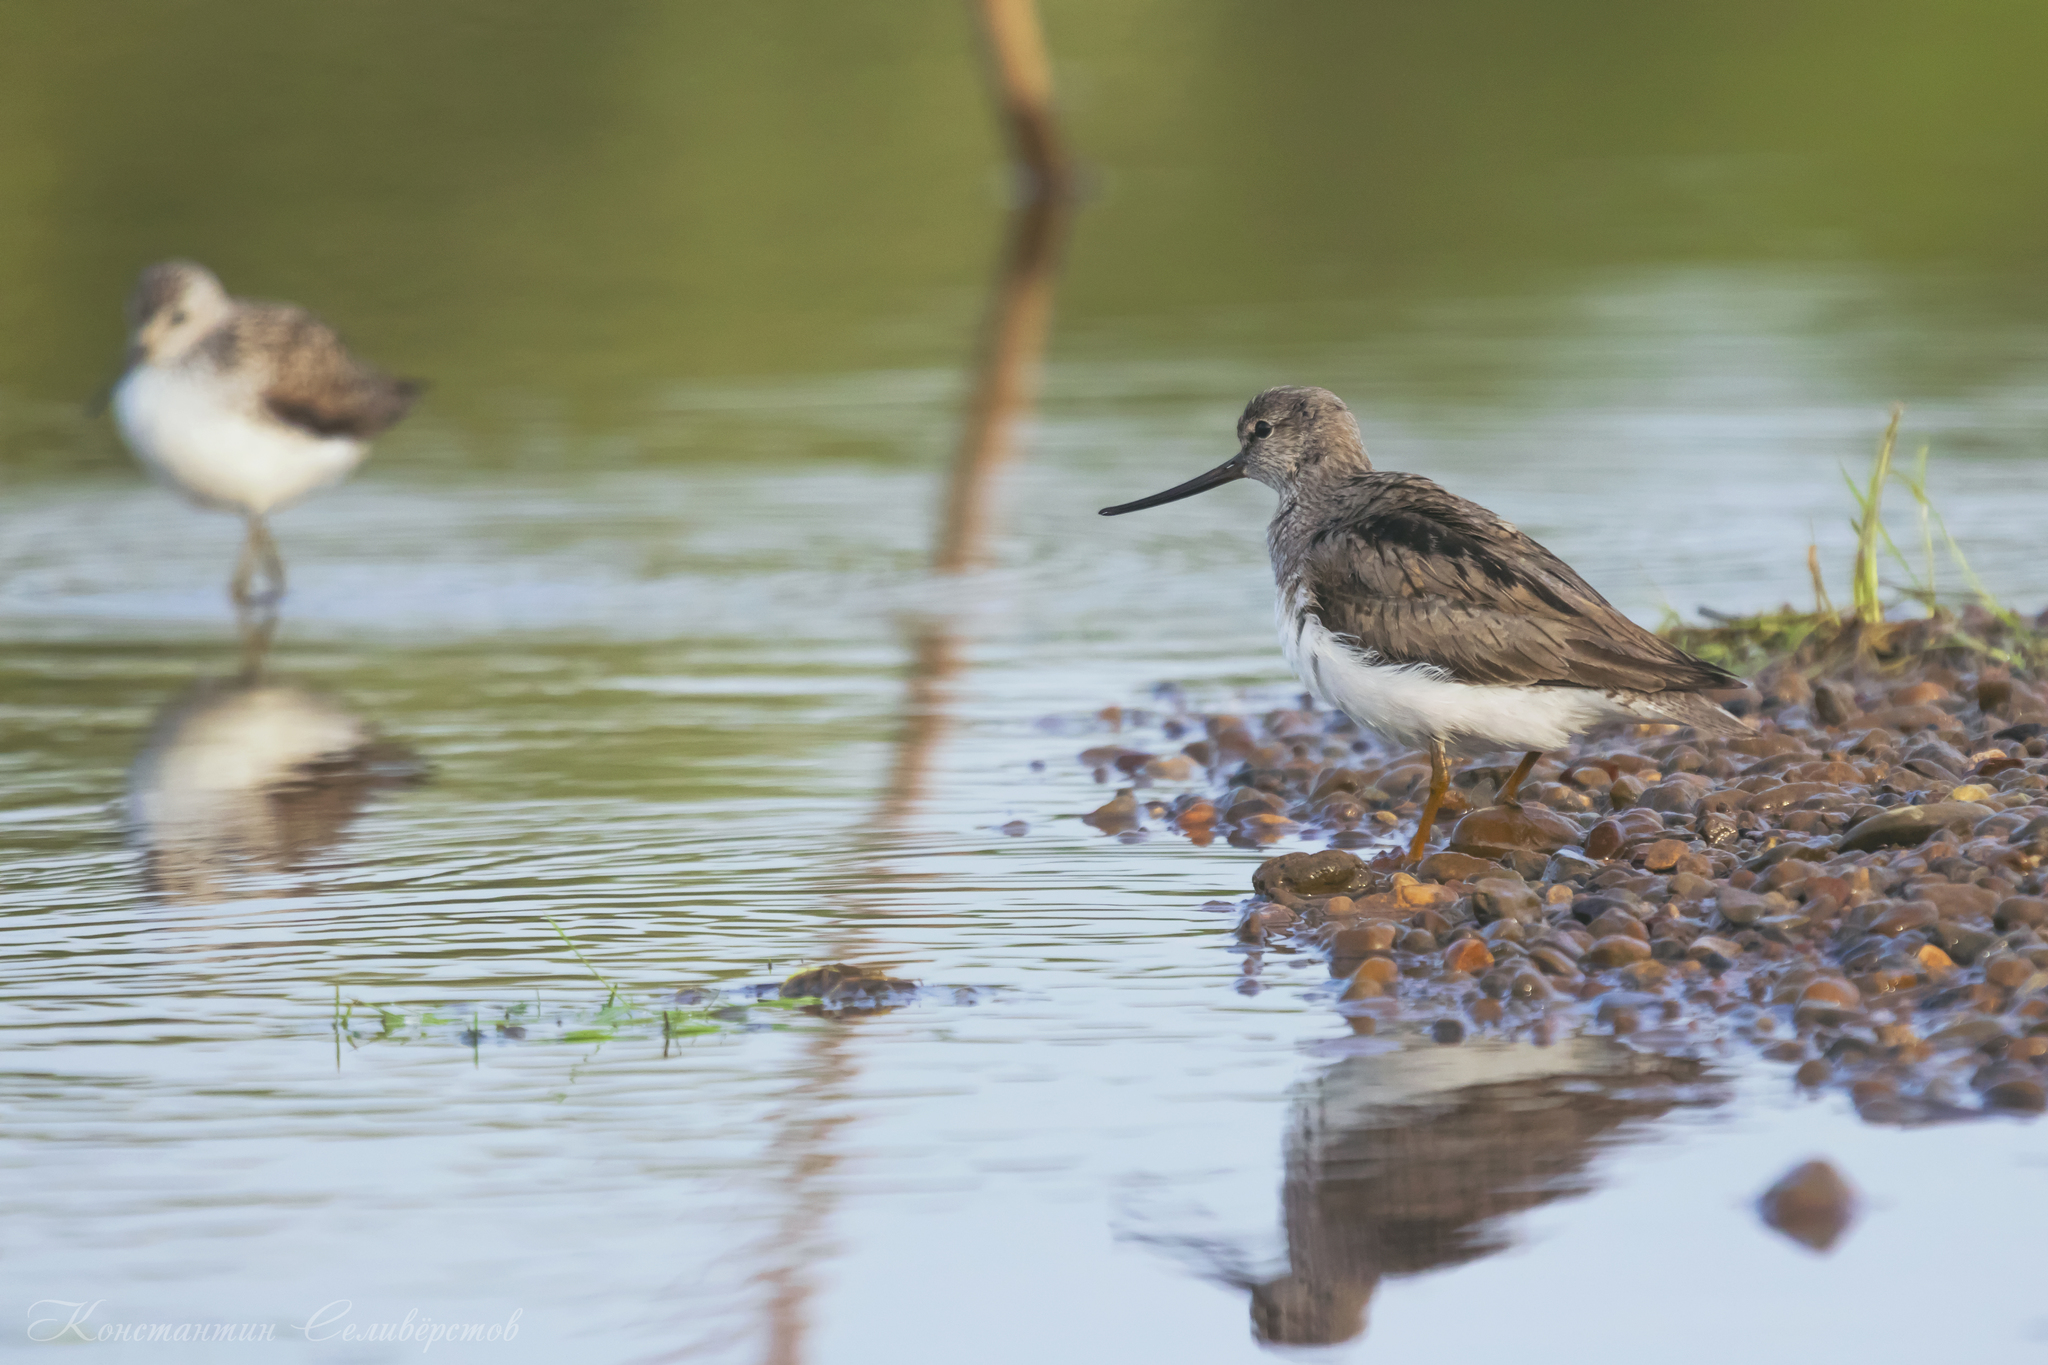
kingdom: Animalia
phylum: Chordata
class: Aves
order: Charadriiformes
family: Scolopacidae
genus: Xenus
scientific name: Xenus cinereus
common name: Terek sandpiper
